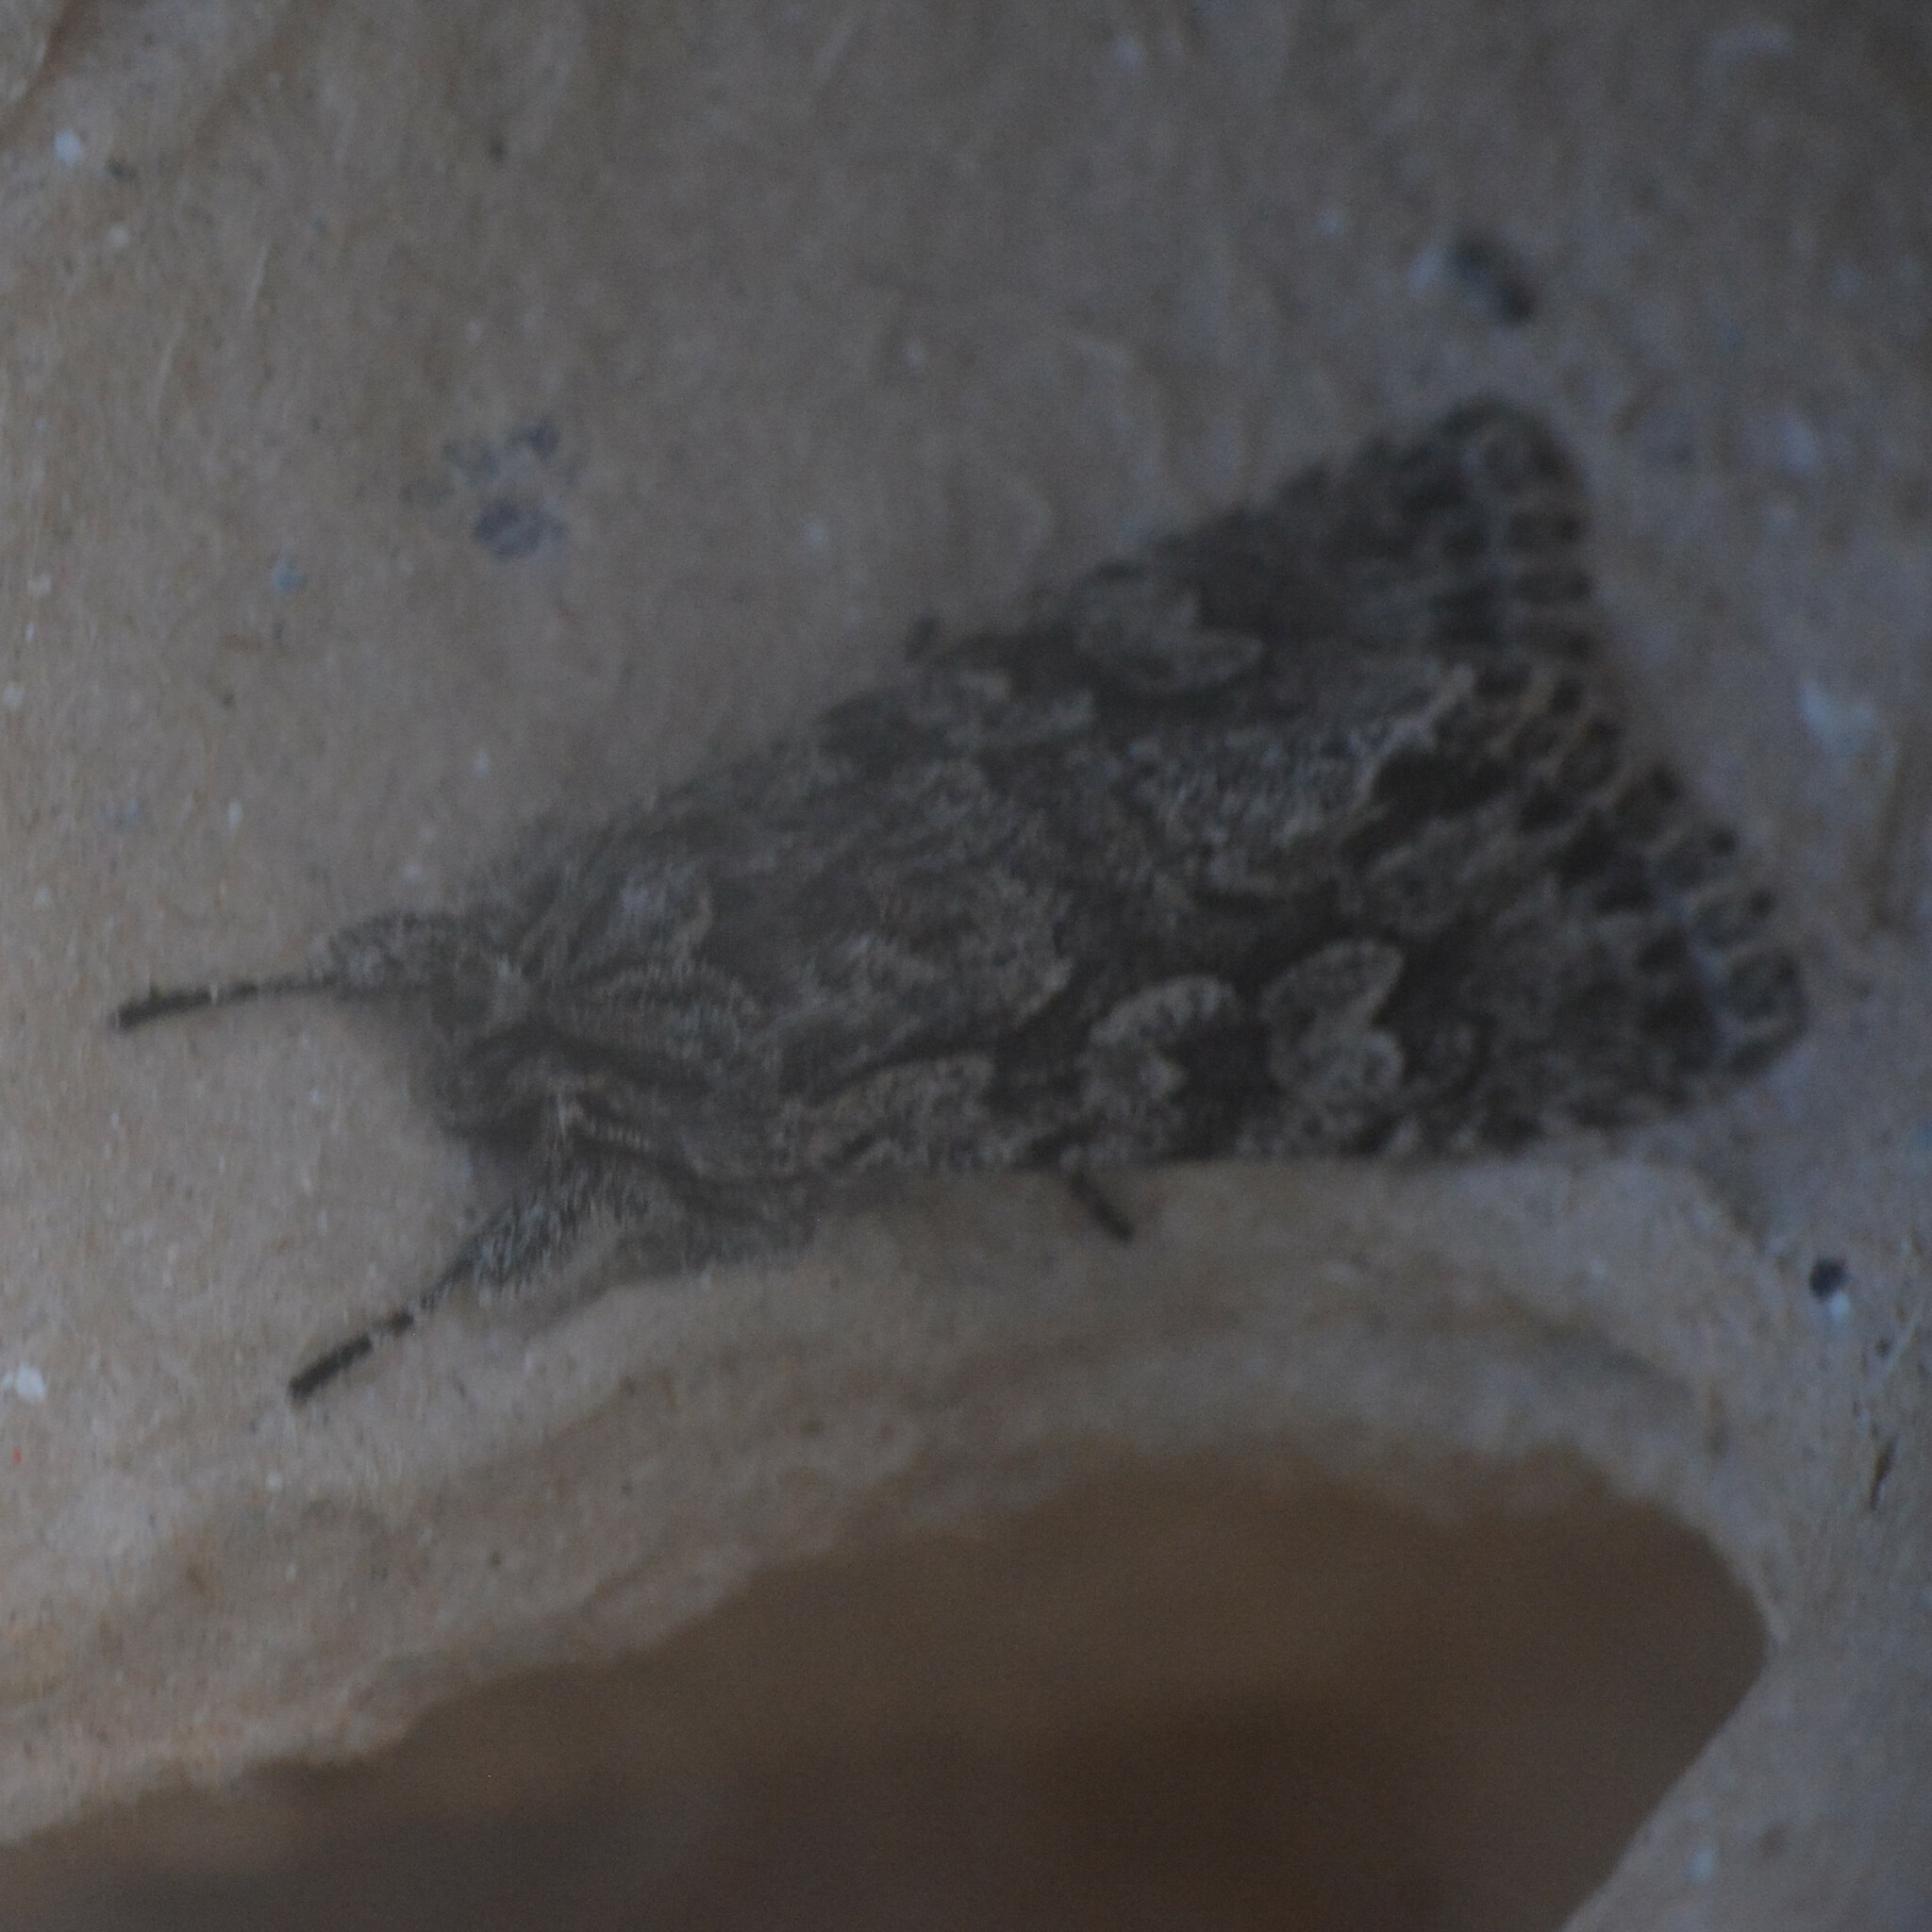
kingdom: Animalia
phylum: Arthropoda
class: Insecta
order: Lepidoptera
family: Noctuidae
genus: Xylocampa
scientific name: Xylocampa areola
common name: Early grey
